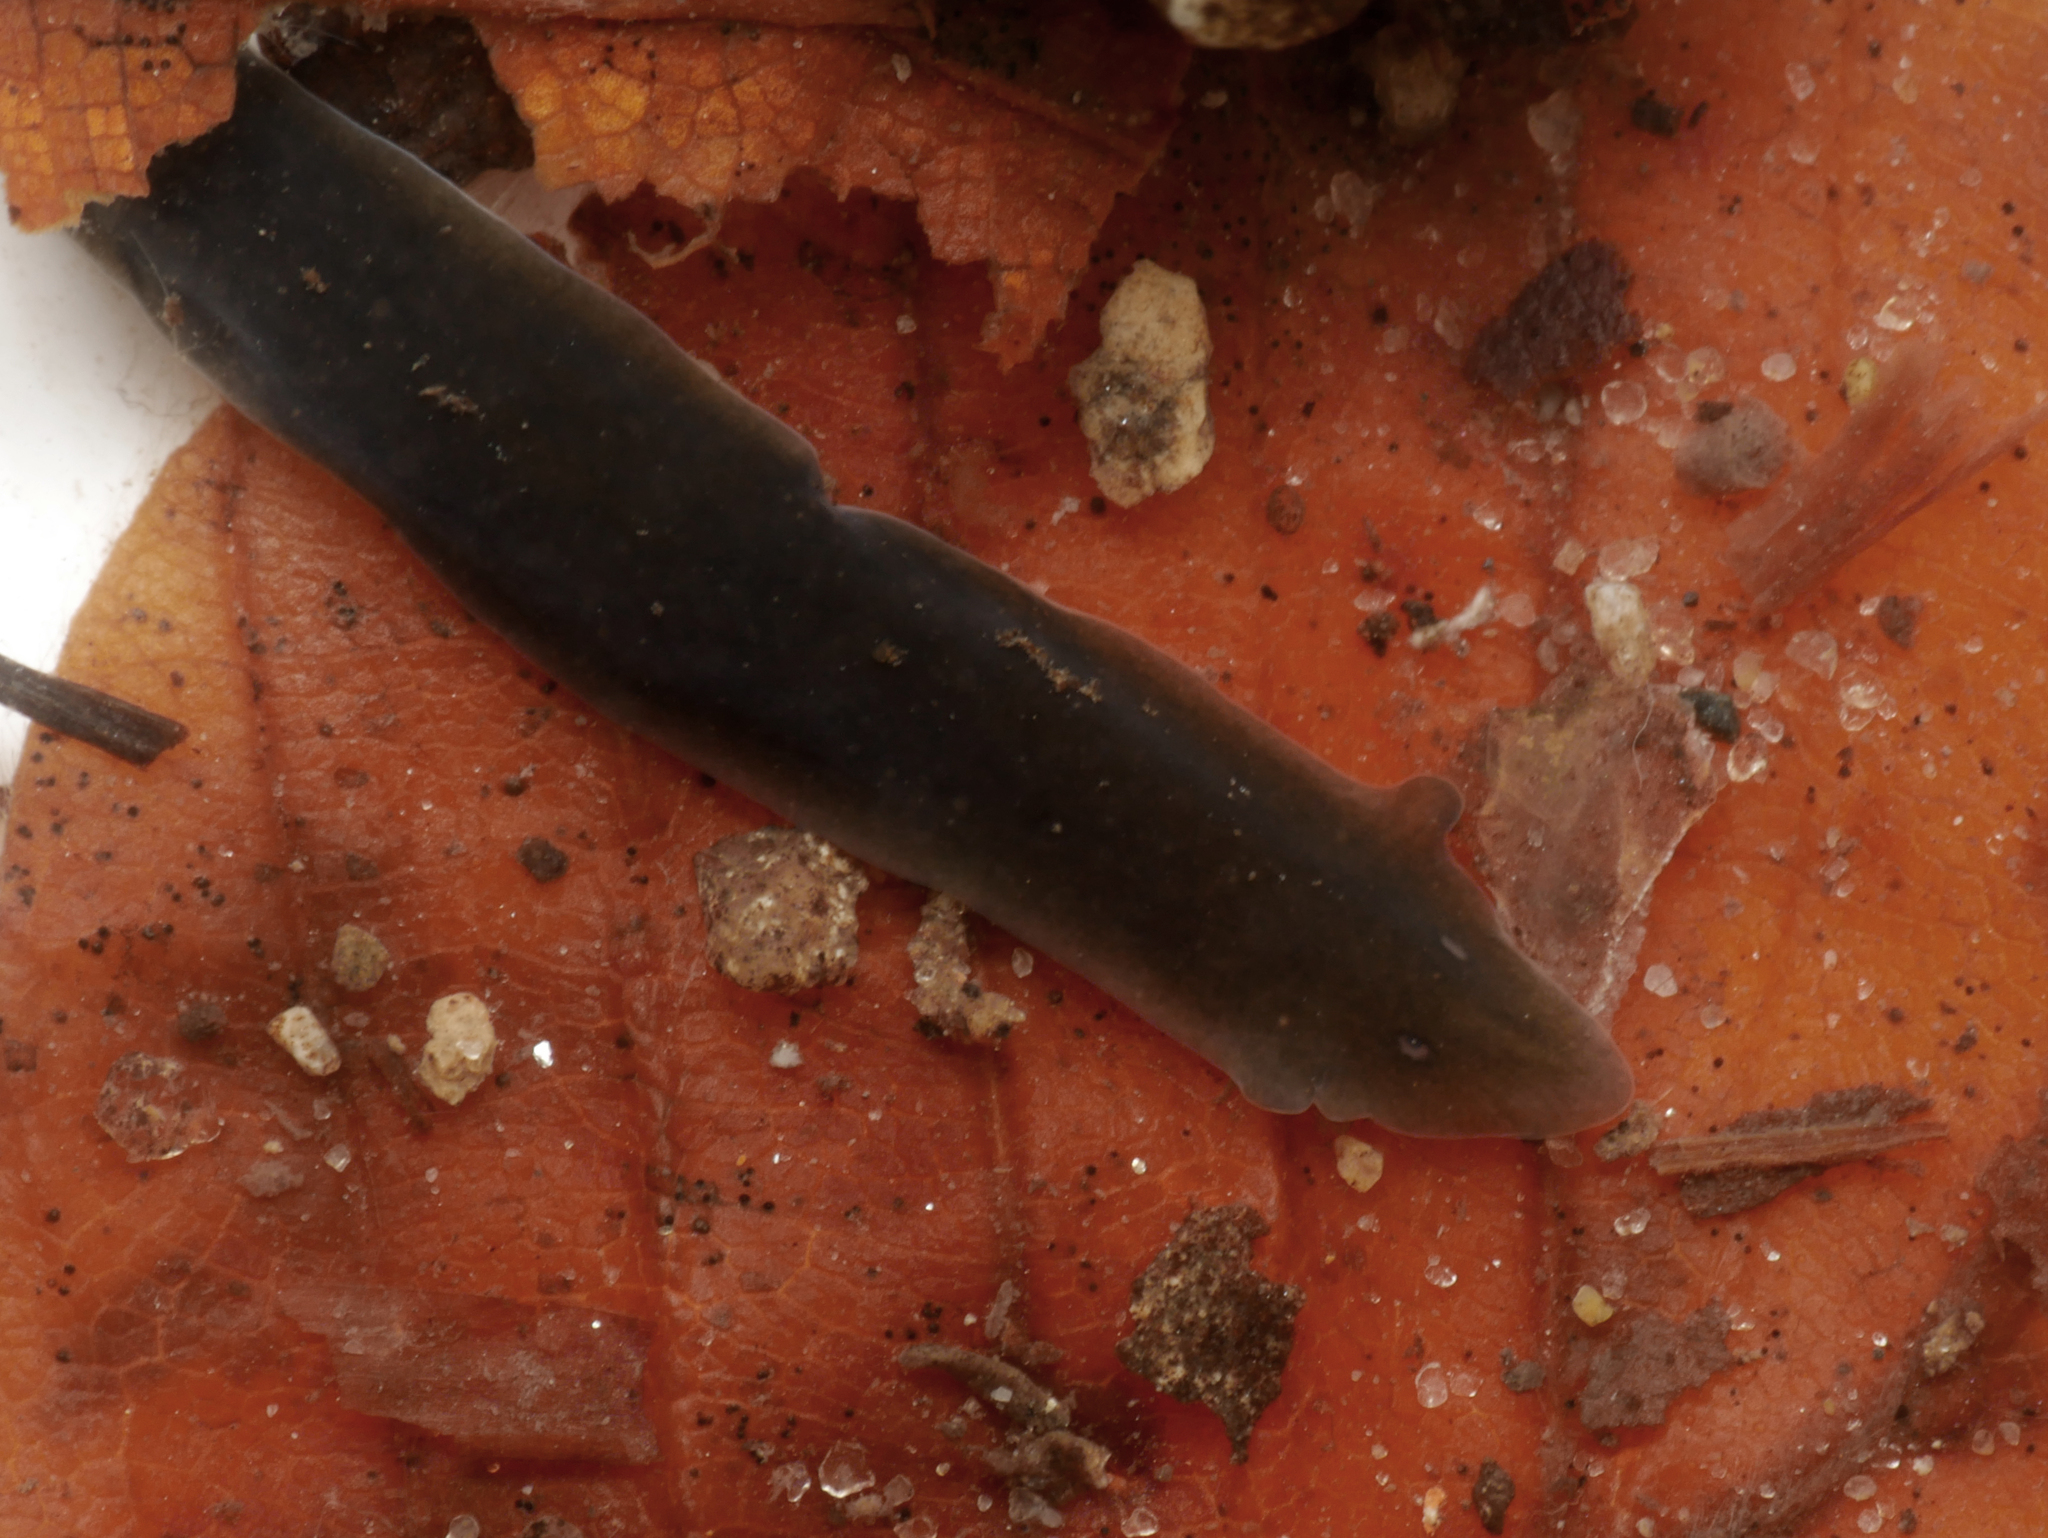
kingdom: Animalia
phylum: Platyhelminthes
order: Tricladida
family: Dugesiidae
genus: Dugesia
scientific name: Dugesia gonocephala
